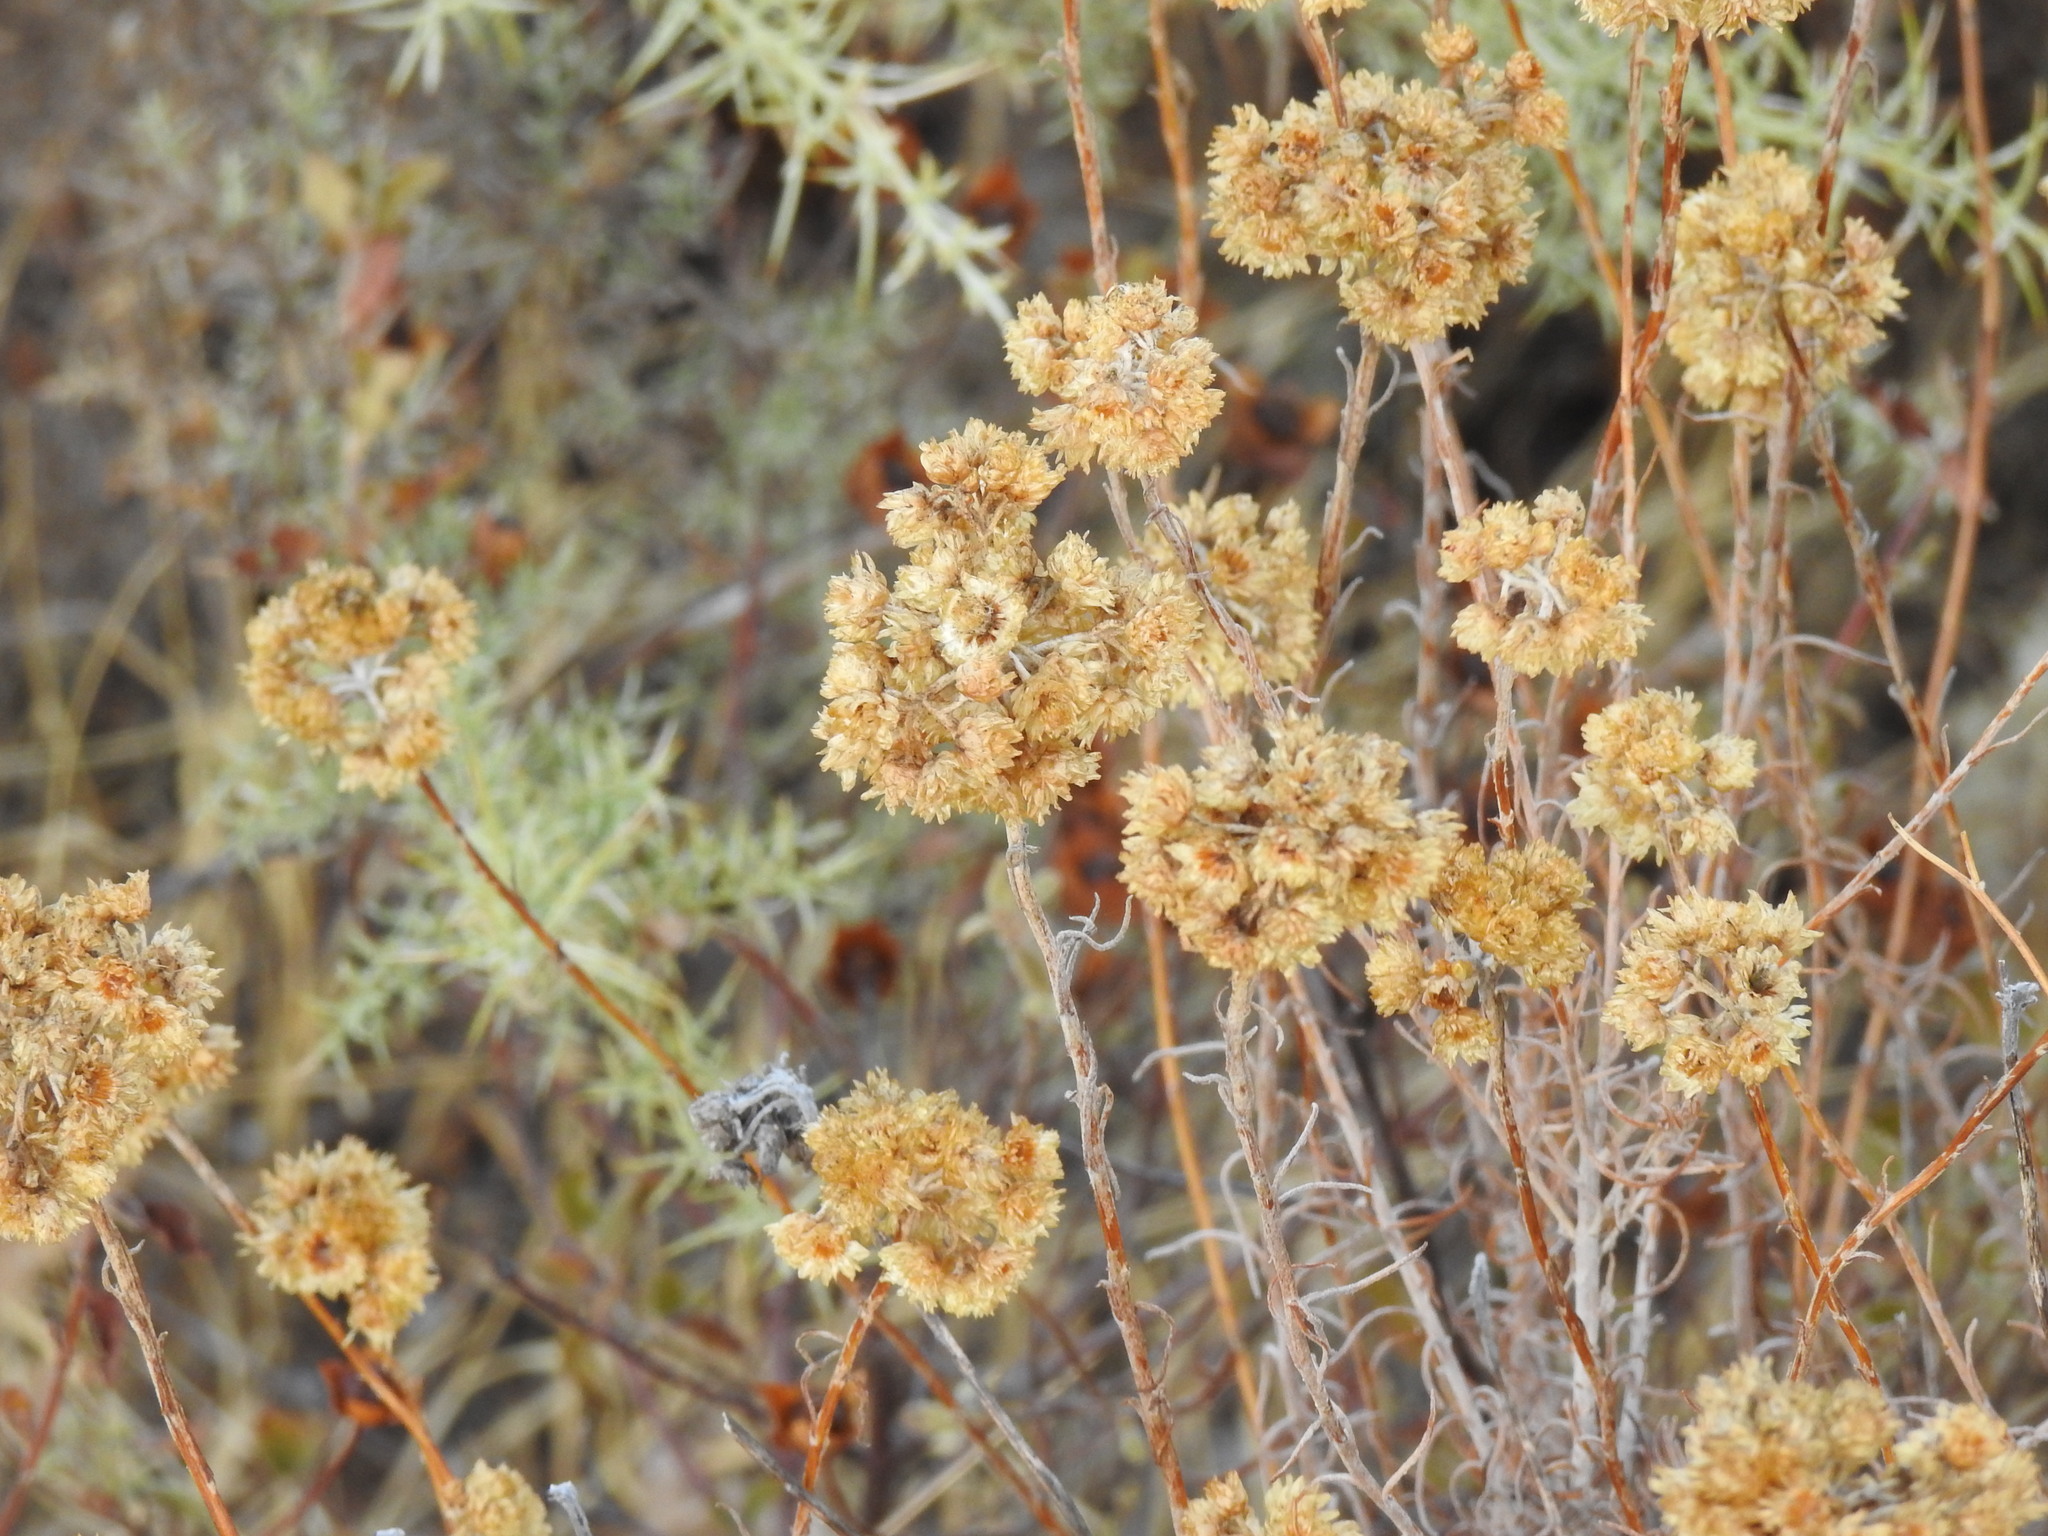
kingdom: Plantae
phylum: Tracheophyta
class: Magnoliopsida
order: Asterales
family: Asteraceae
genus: Helichrysum
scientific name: Helichrysum stoechas
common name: Goldilocks
